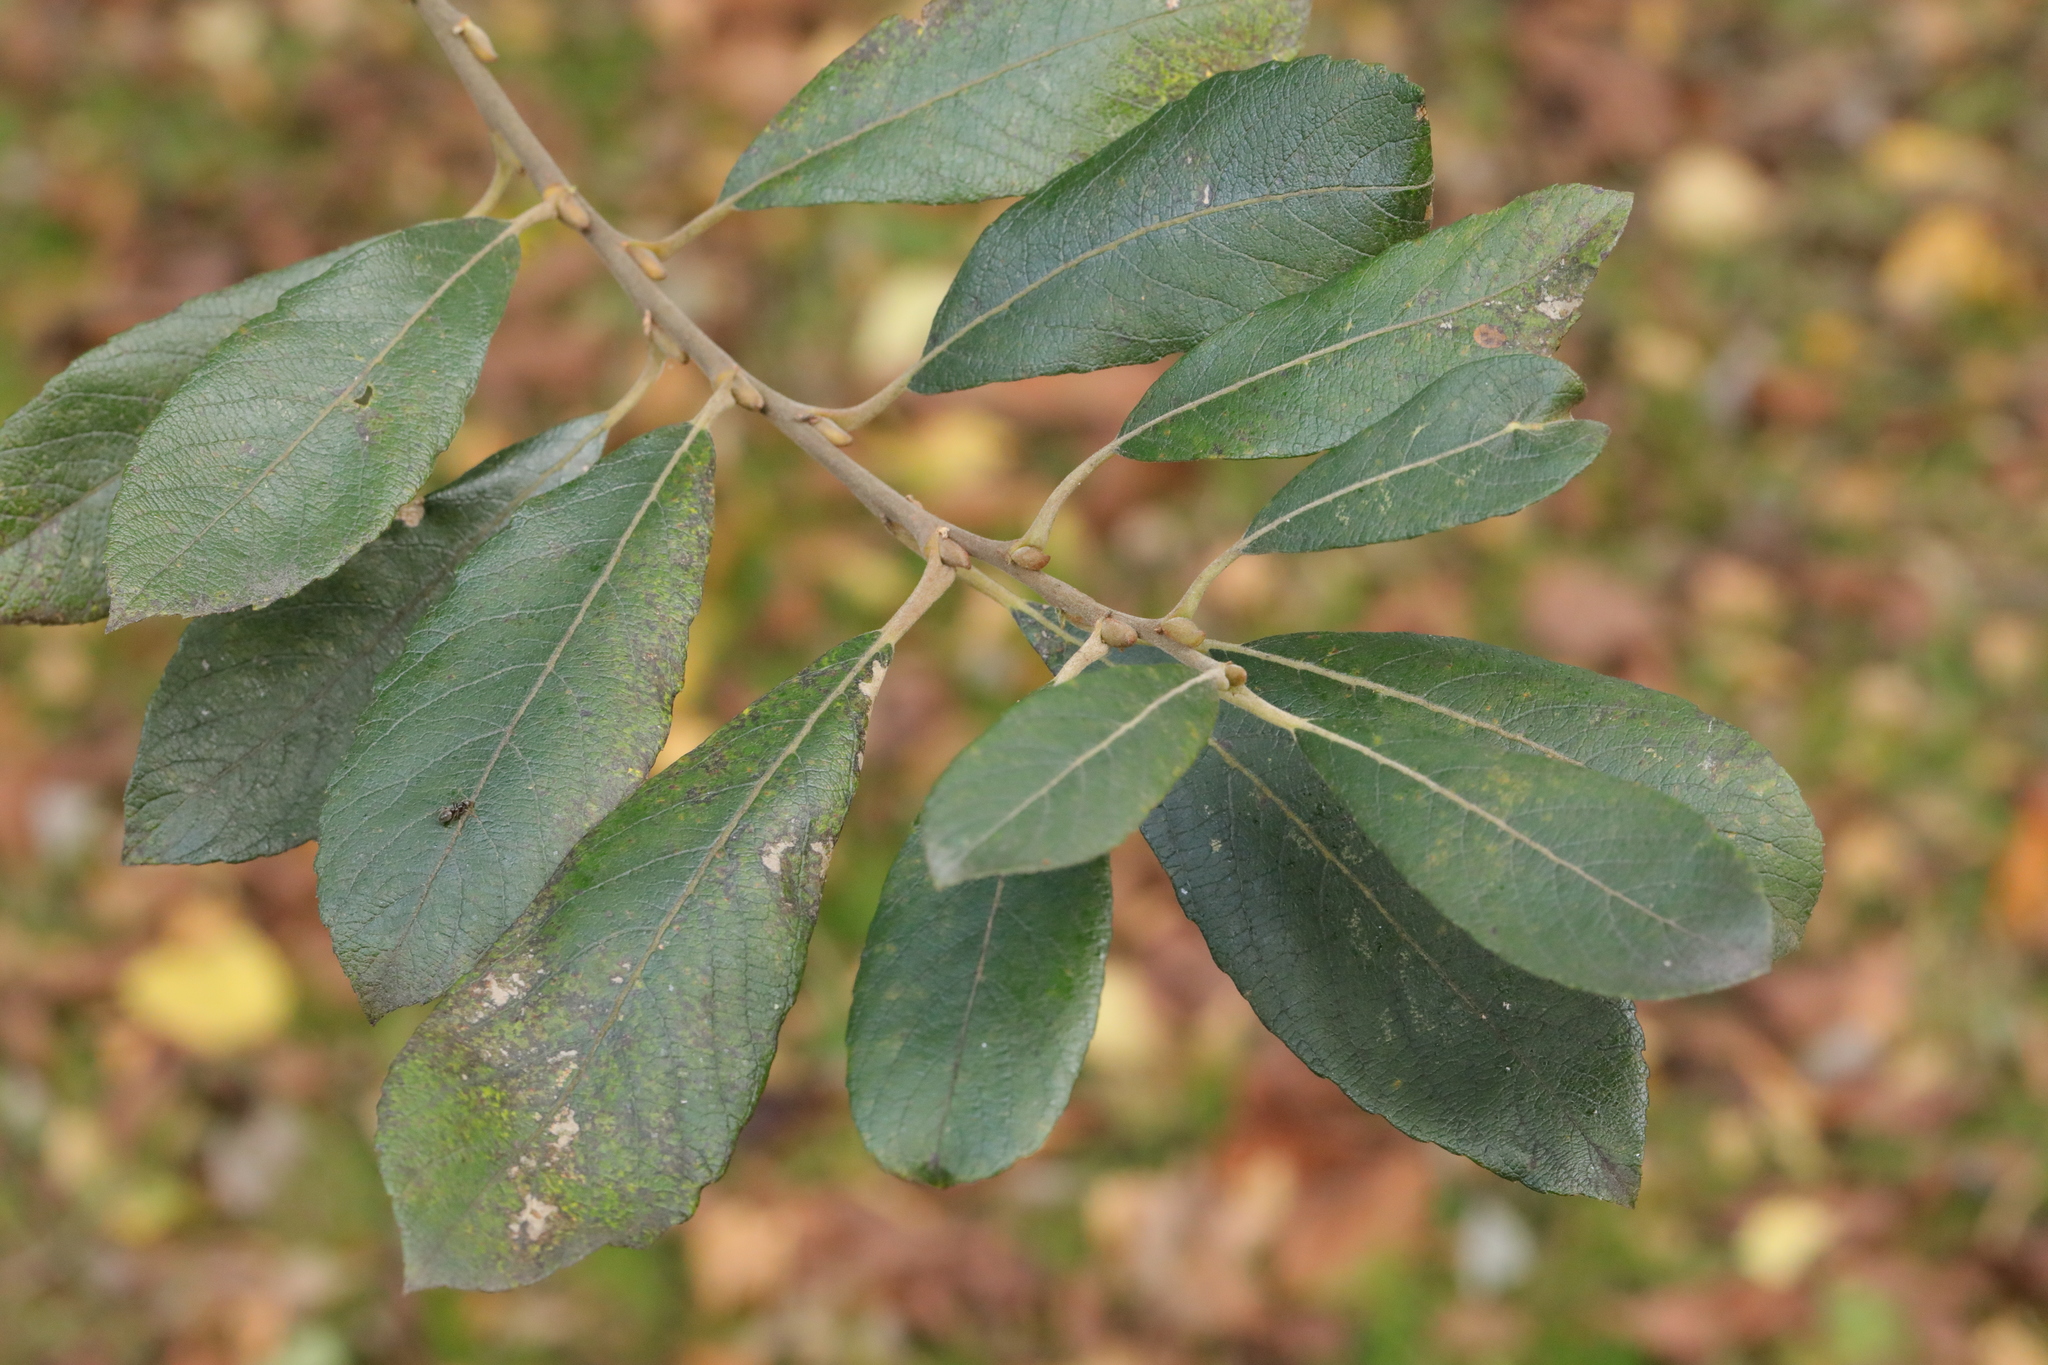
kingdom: Plantae
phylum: Tracheophyta
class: Magnoliopsida
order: Malpighiales
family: Salicaceae
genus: Salix
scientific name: Salix cinerea
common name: Common sallow
